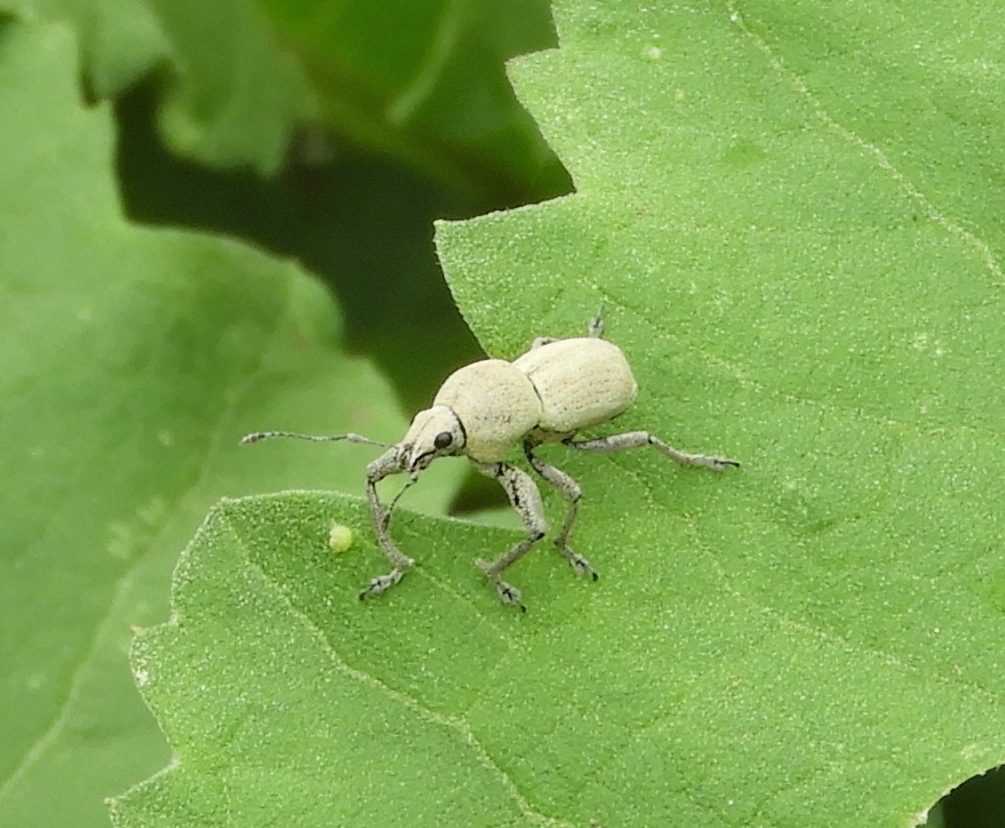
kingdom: Animalia
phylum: Arthropoda
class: Insecta
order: Coleoptera
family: Curculionidae
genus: Pantomorus
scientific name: Pantomorus
